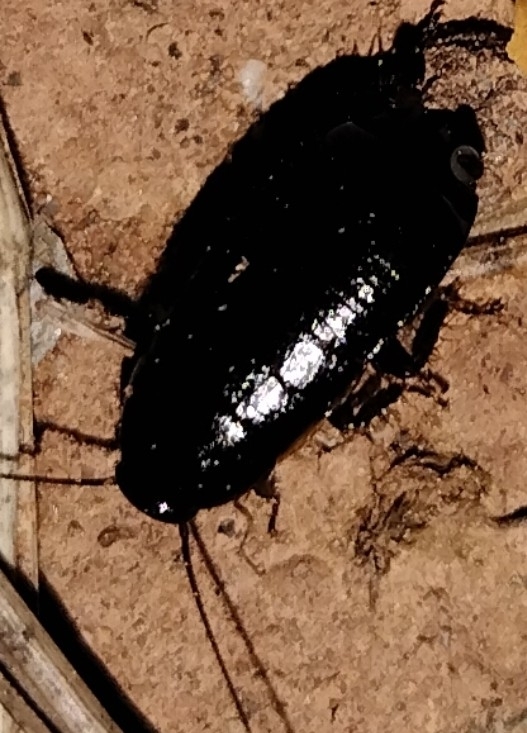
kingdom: Animalia
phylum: Arthropoda
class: Insecta
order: Blattodea
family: Ectobiidae
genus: Loboptera
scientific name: Loboptera canariensis
